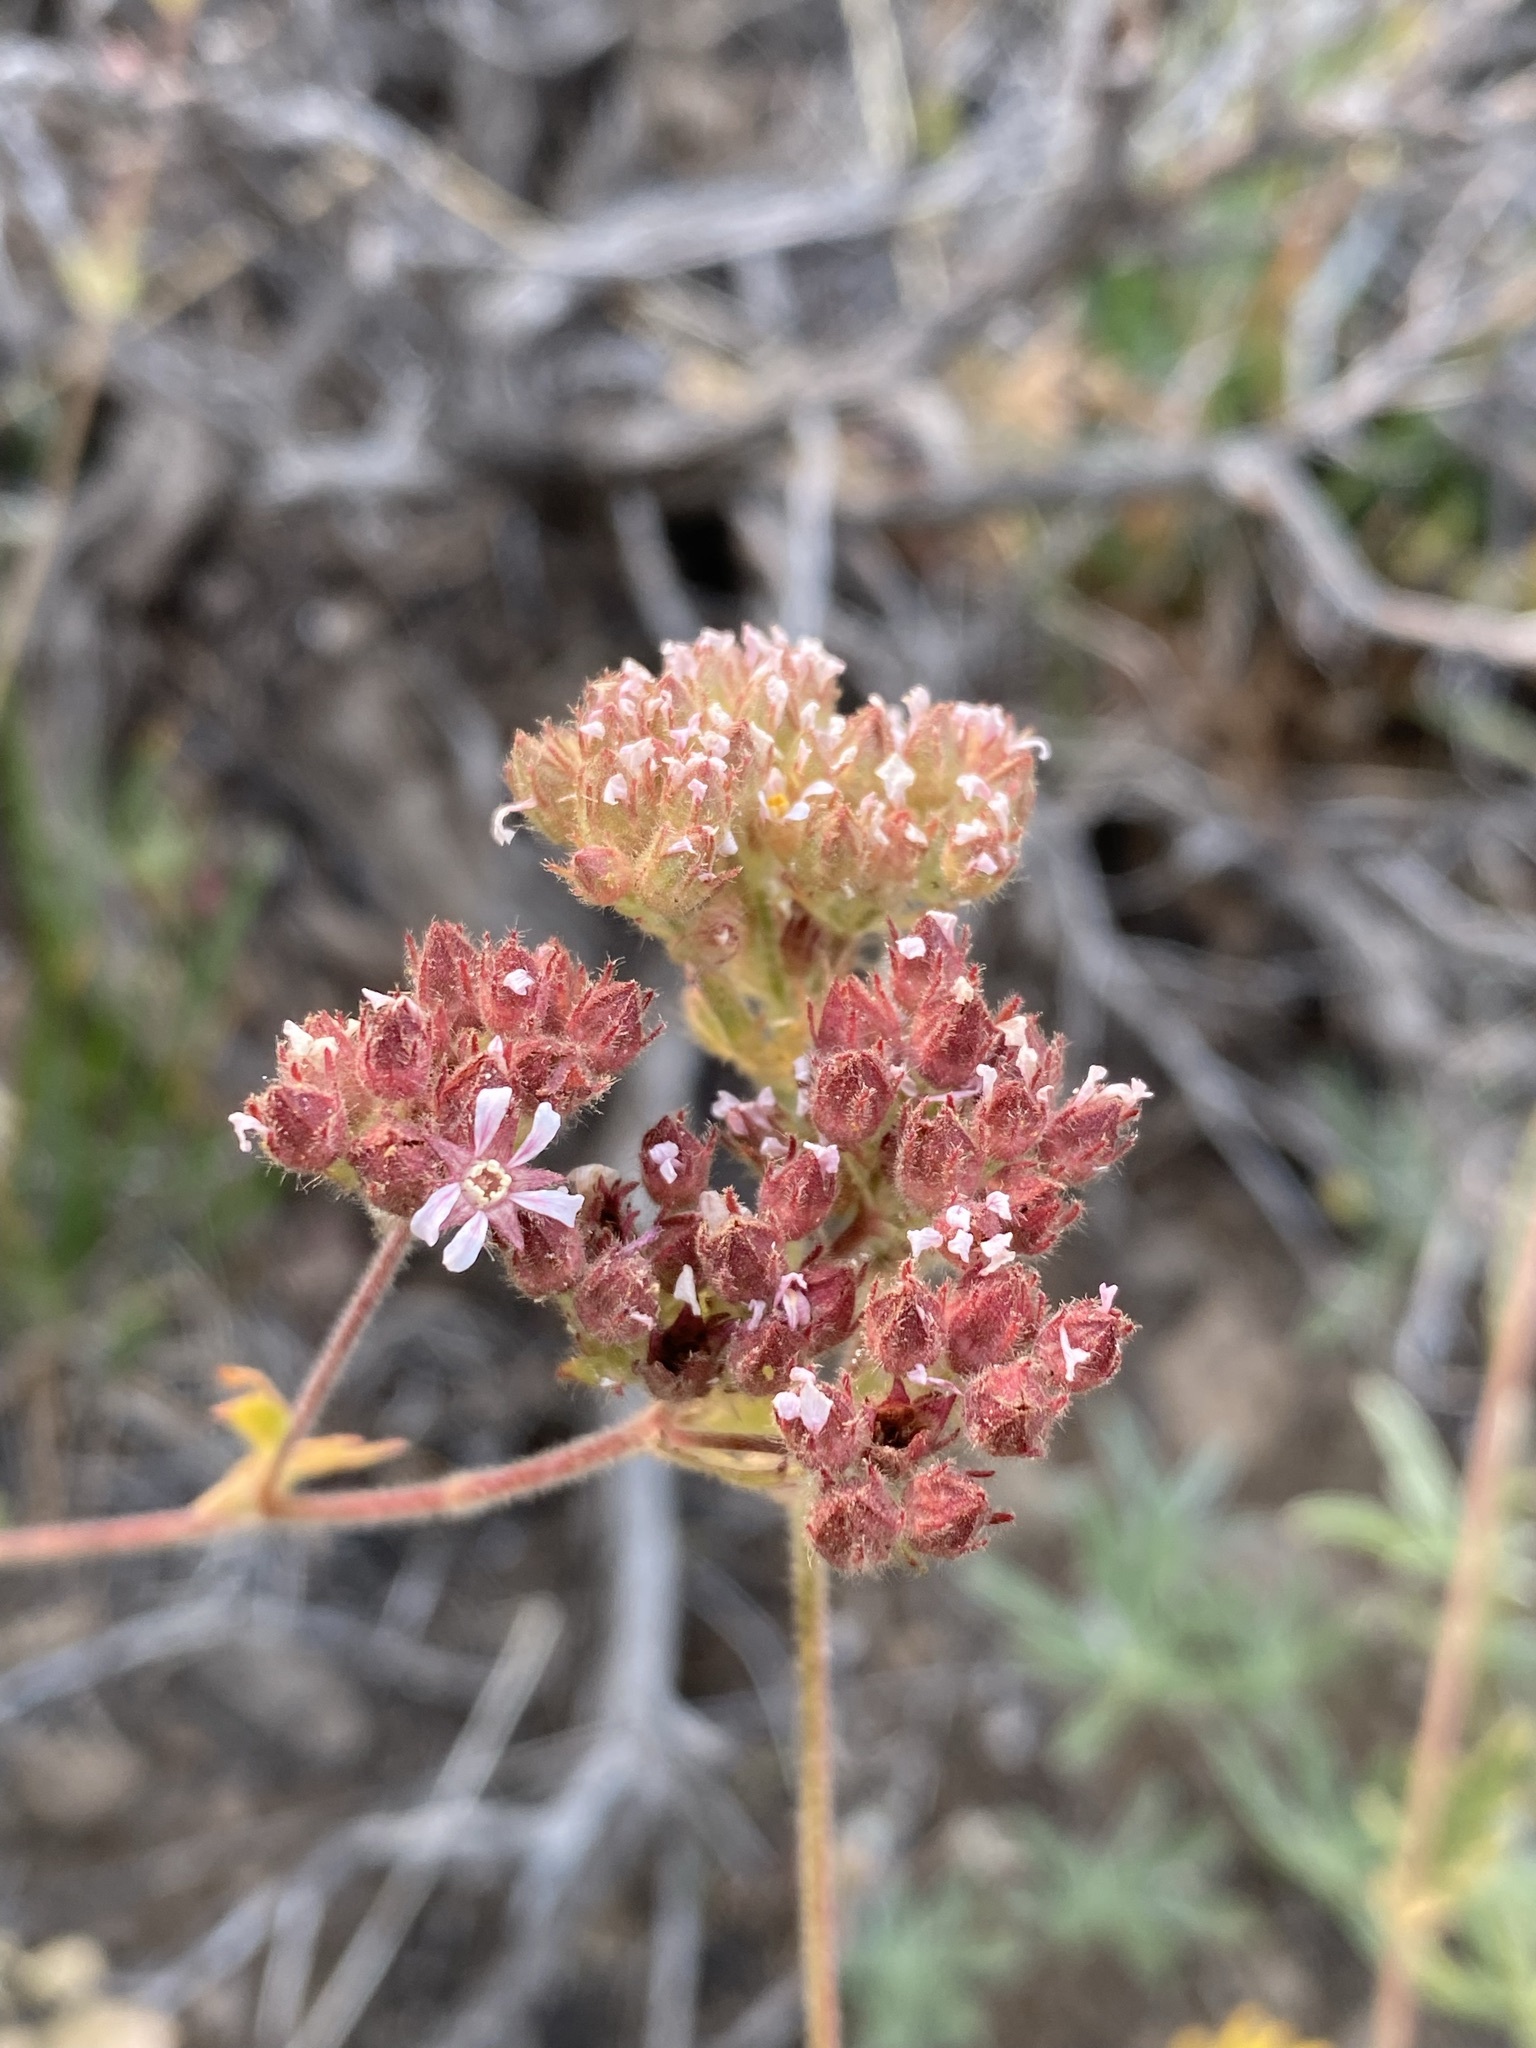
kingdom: Plantae
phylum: Tracheophyta
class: Magnoliopsida
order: Rosales
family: Rosaceae
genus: Potentilla
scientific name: Potentilla douglasii
